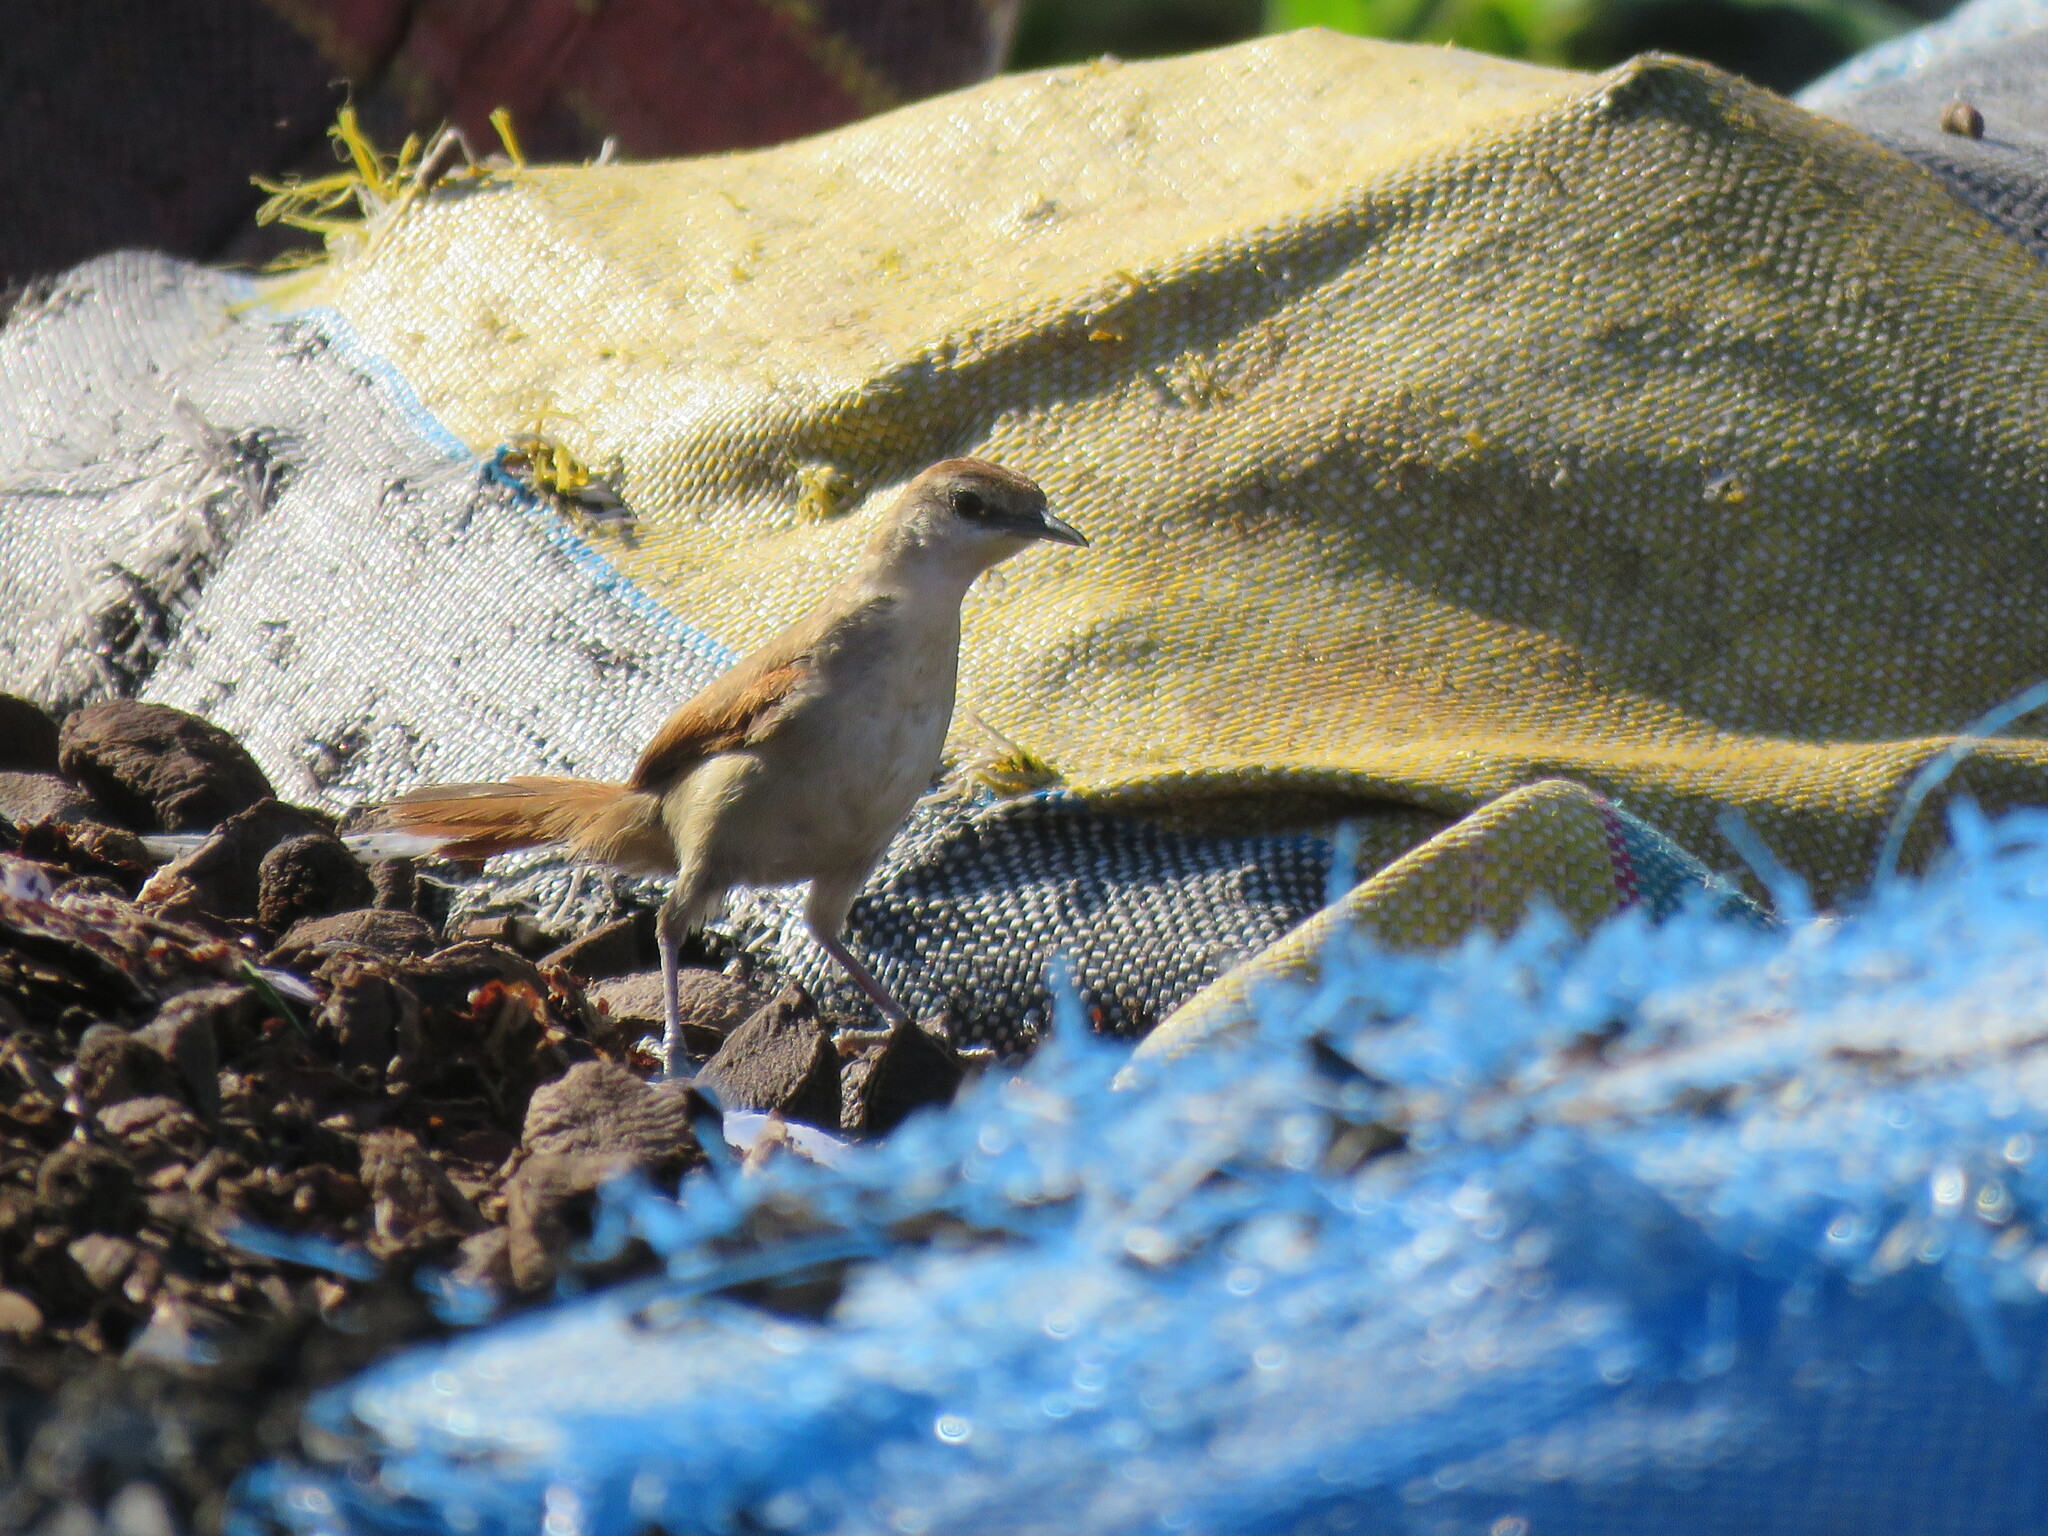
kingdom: Animalia
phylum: Chordata
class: Aves
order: Passeriformes
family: Furnariidae
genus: Certhiaxis
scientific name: Certhiaxis cinnamomeus
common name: Yellow-chinned spinetail
